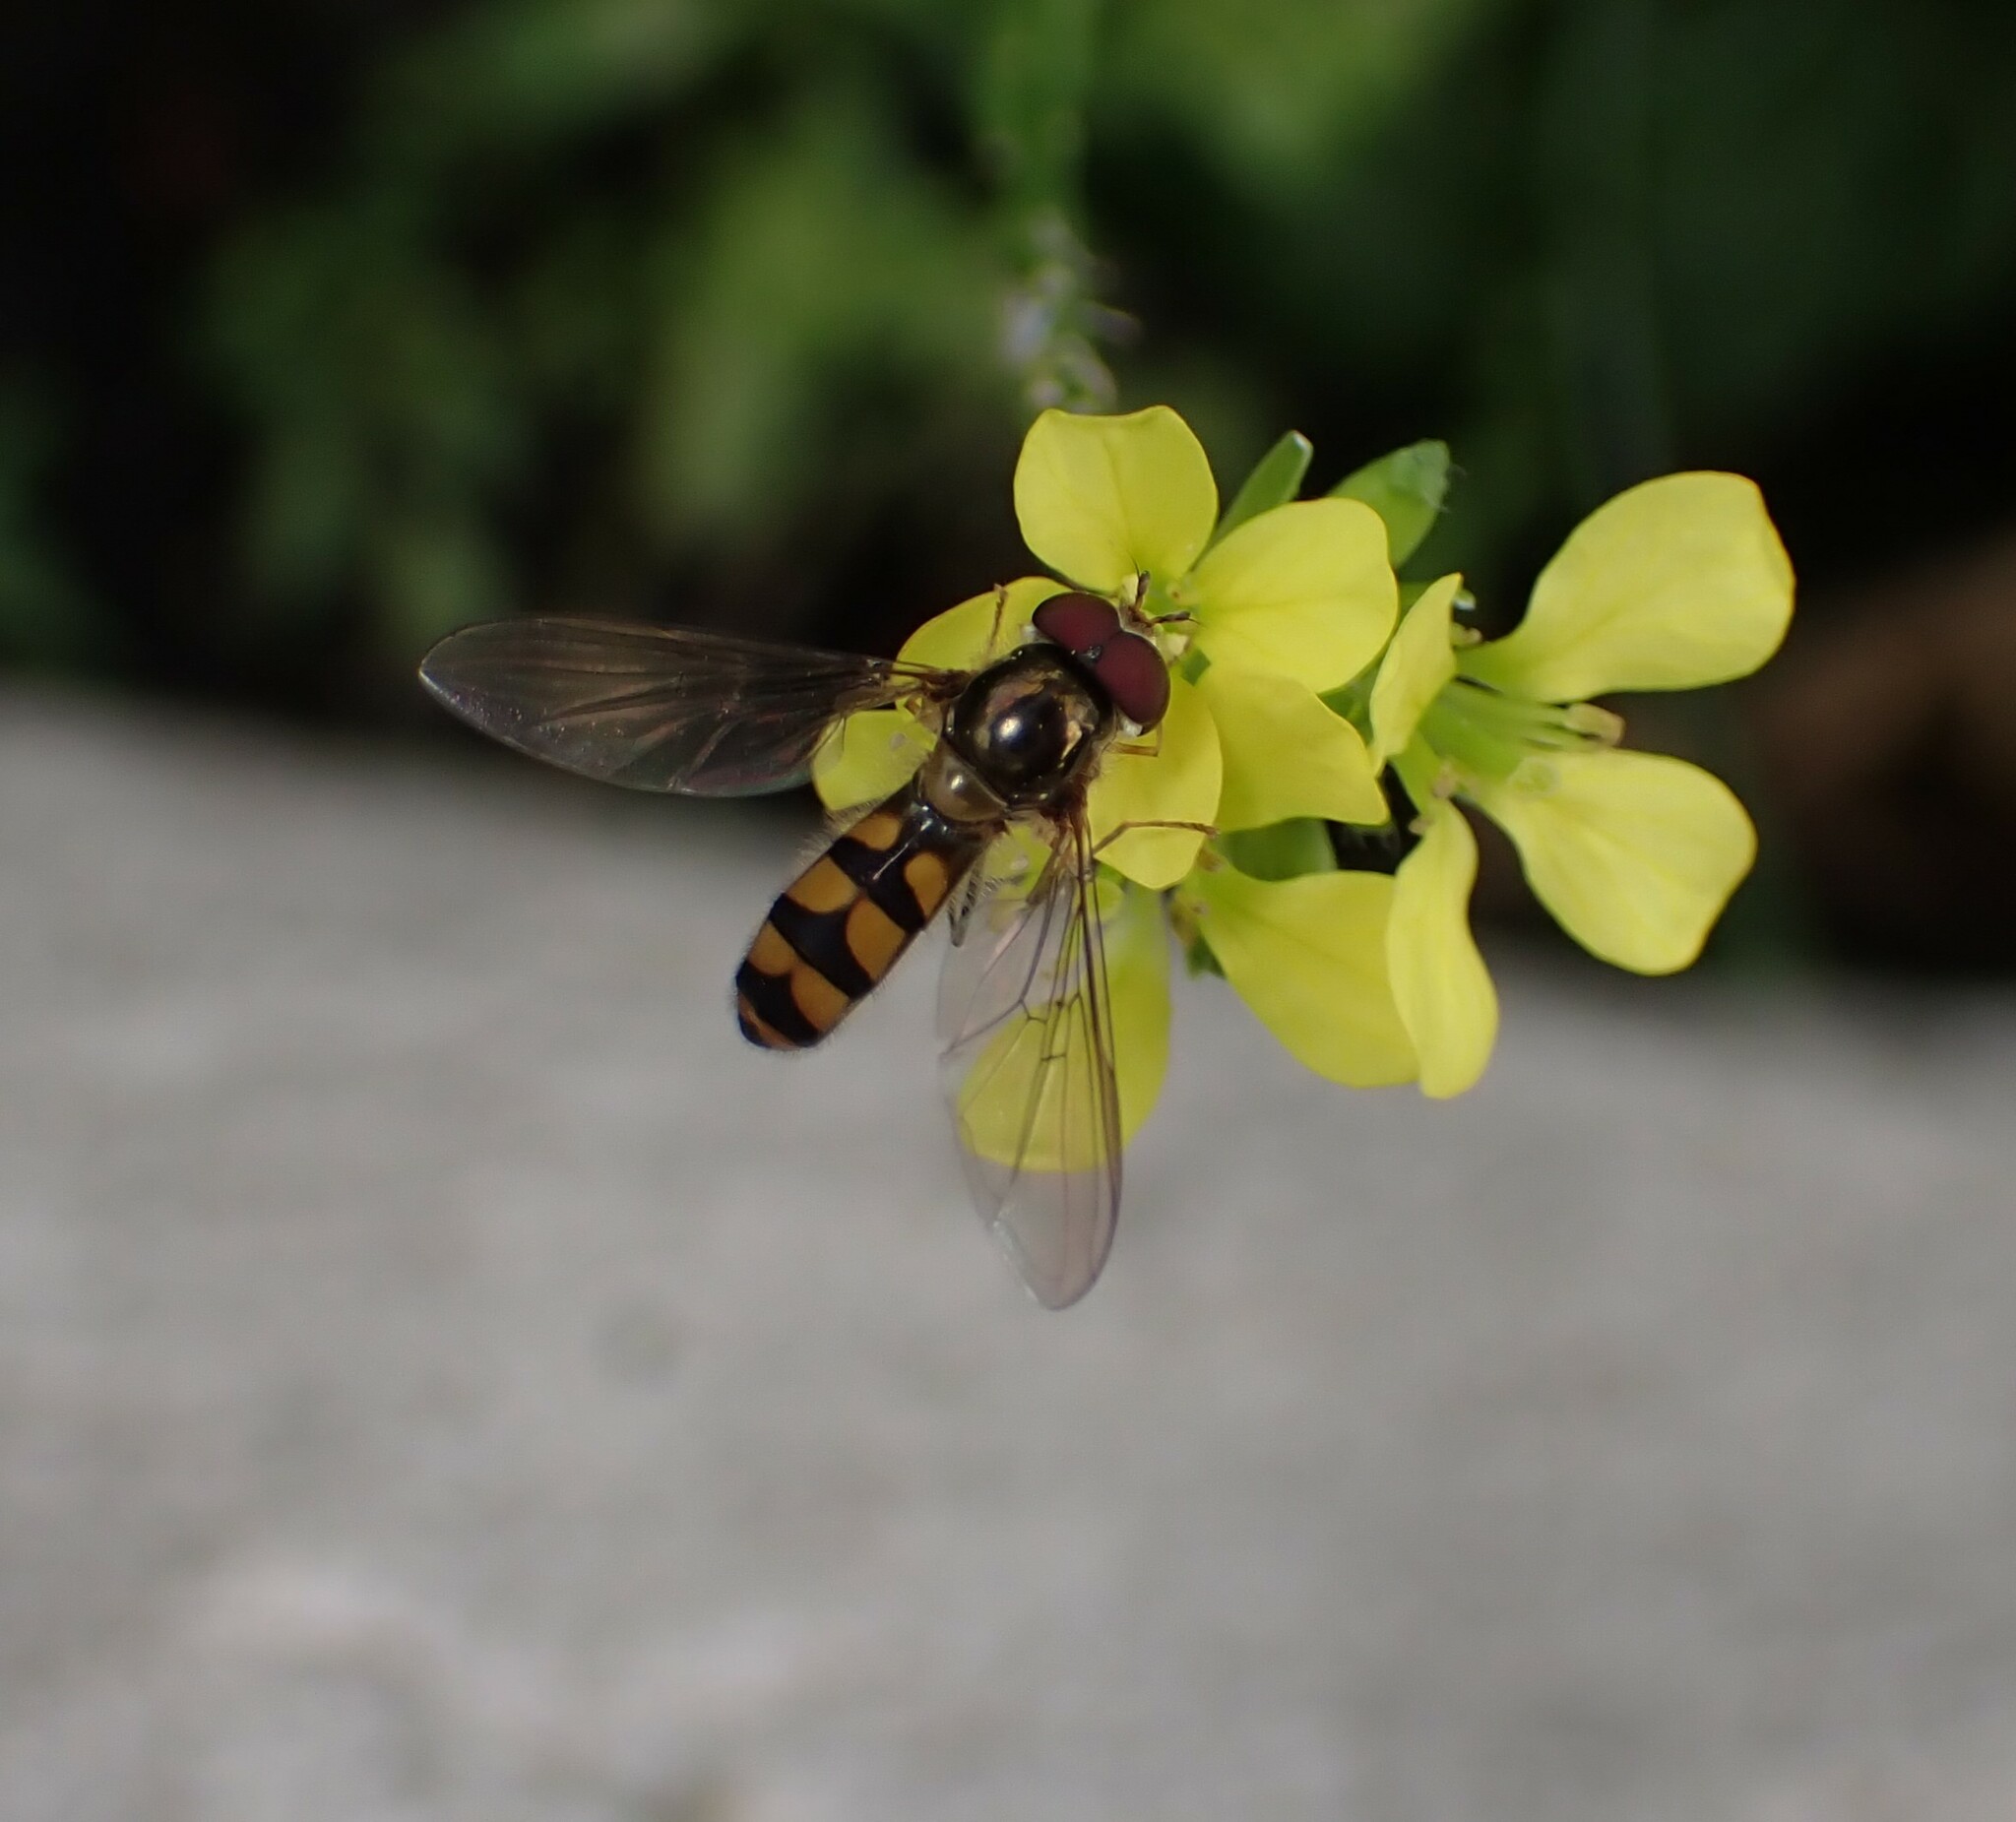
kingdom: Animalia
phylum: Arthropoda
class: Insecta
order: Diptera
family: Syrphidae
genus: Meliscaeva
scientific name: Meliscaeva auricollis
